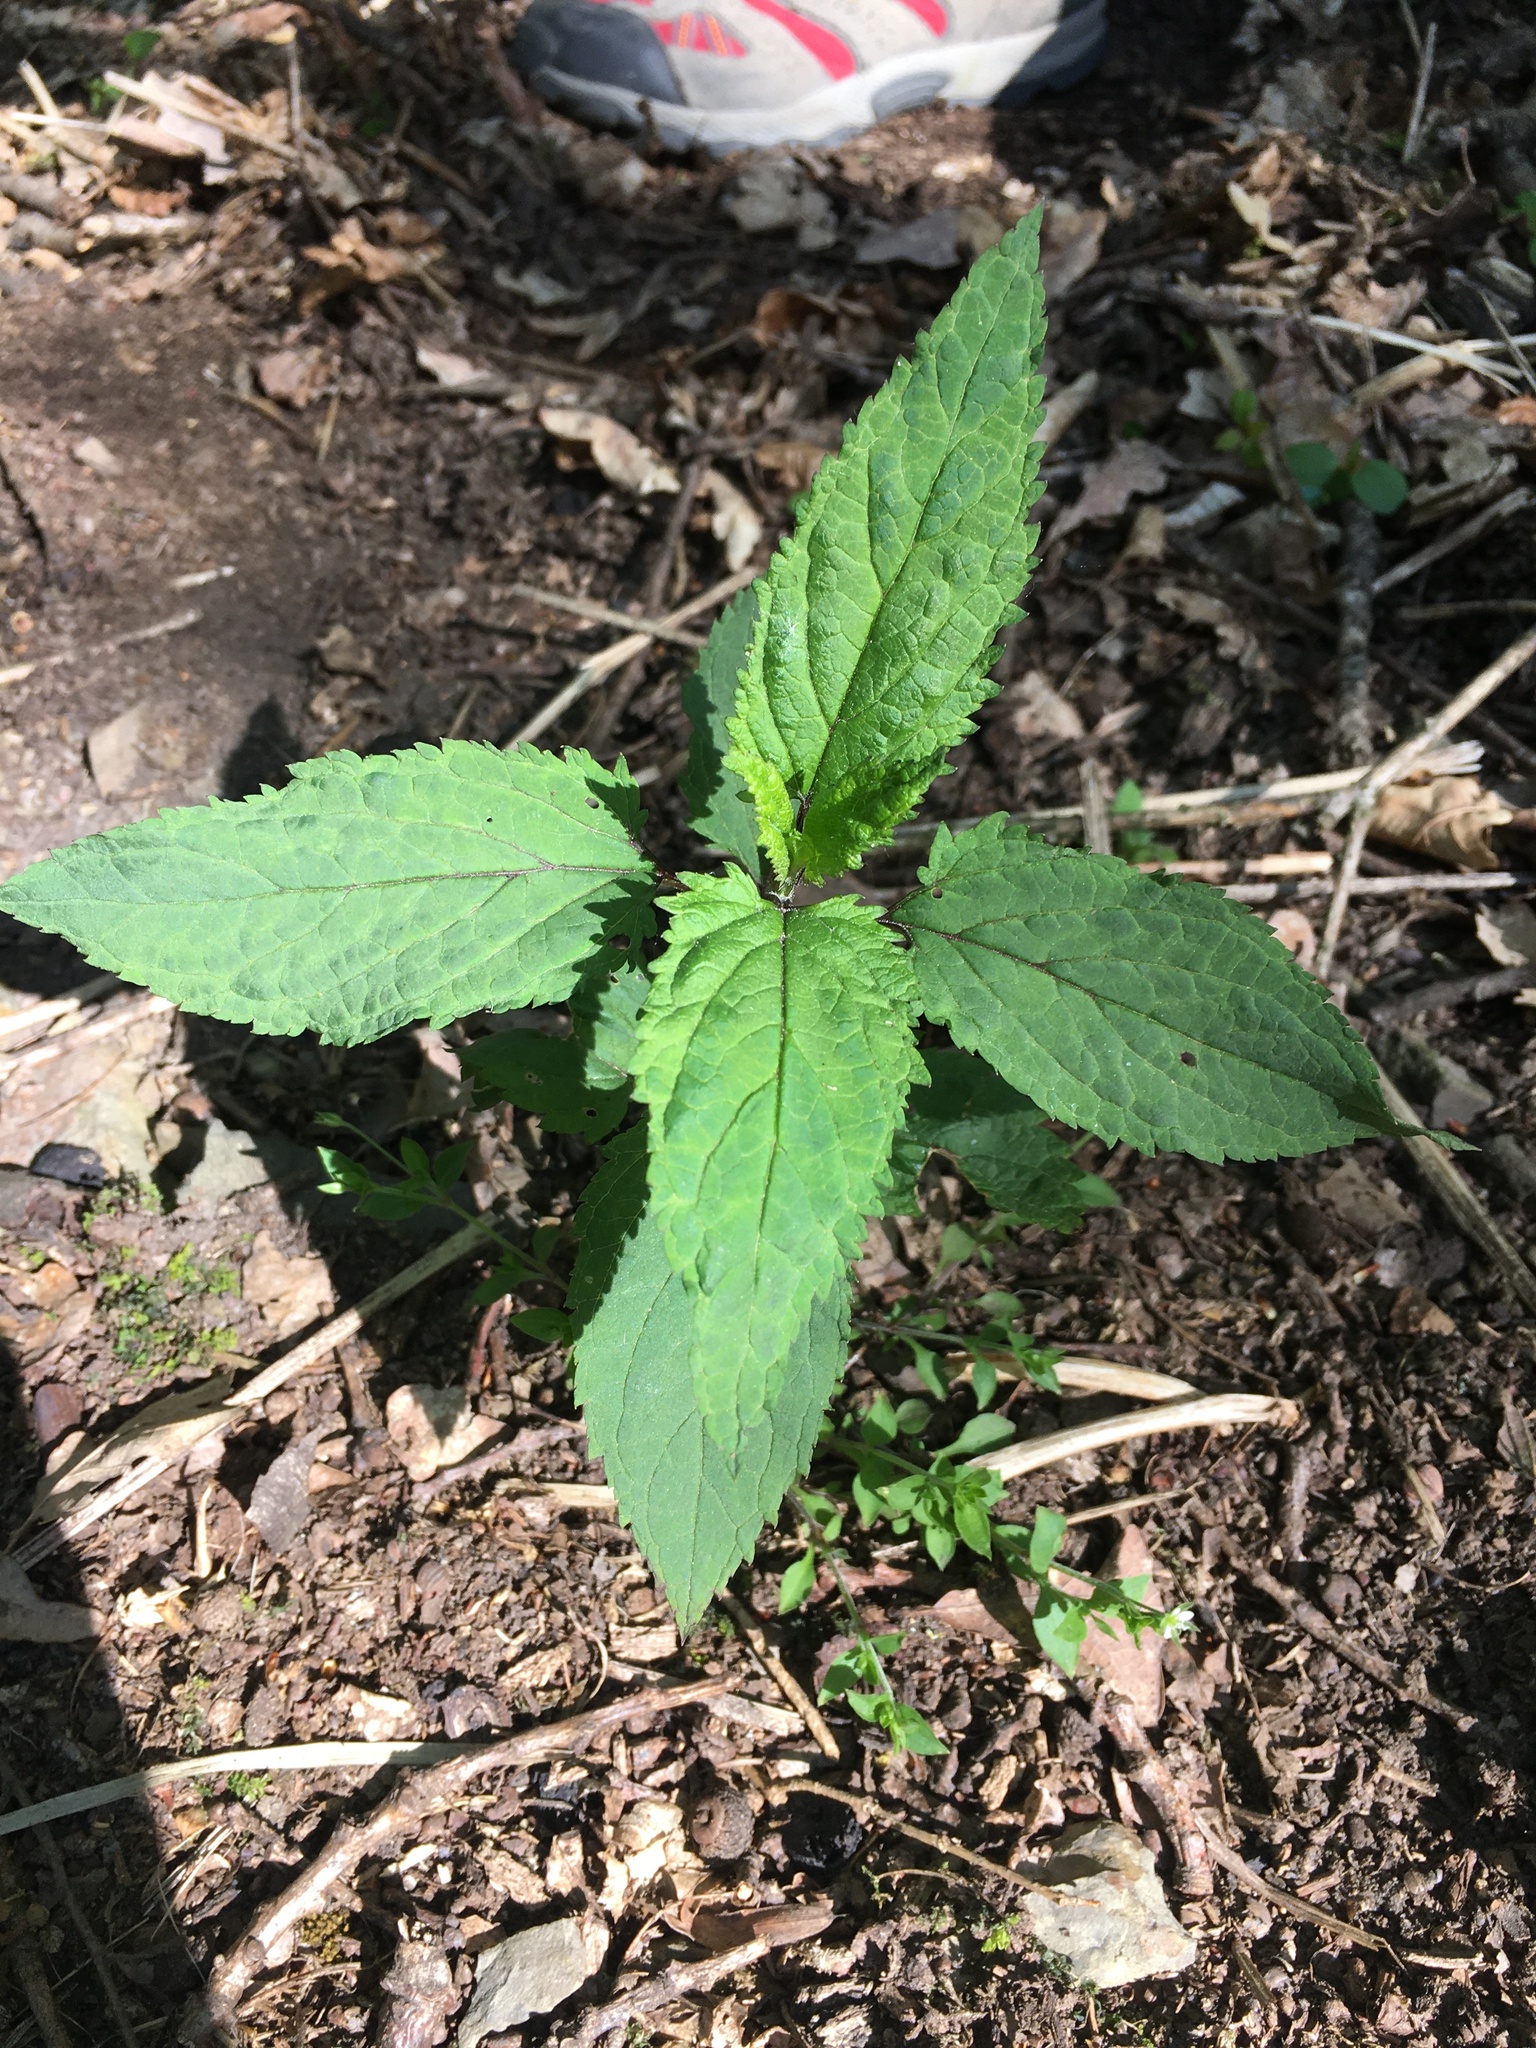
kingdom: Plantae
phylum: Tracheophyta
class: Magnoliopsida
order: Lamiales
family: Scrophulariaceae
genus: Scrophularia
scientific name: Scrophularia nodosa
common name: Common figwort
